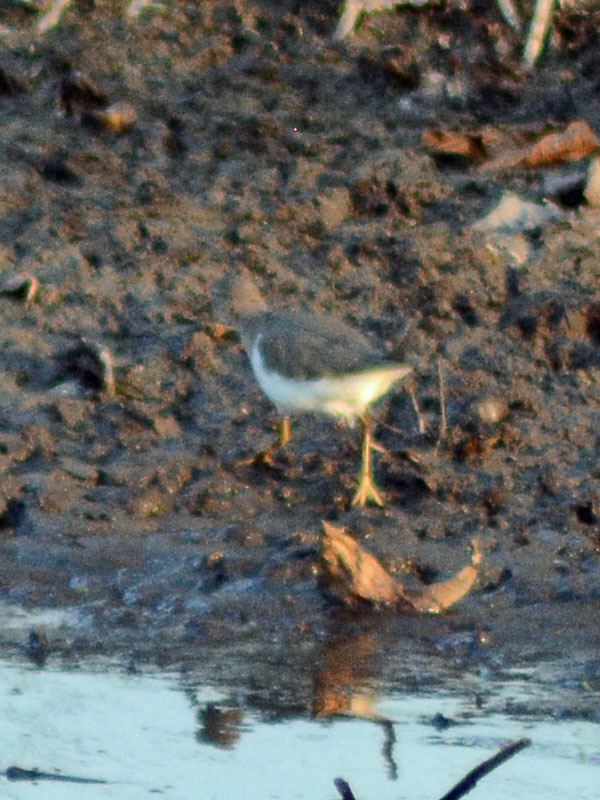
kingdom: Animalia
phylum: Chordata
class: Aves
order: Charadriiformes
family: Scolopacidae
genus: Actitis
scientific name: Actitis macularius
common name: Spotted sandpiper
